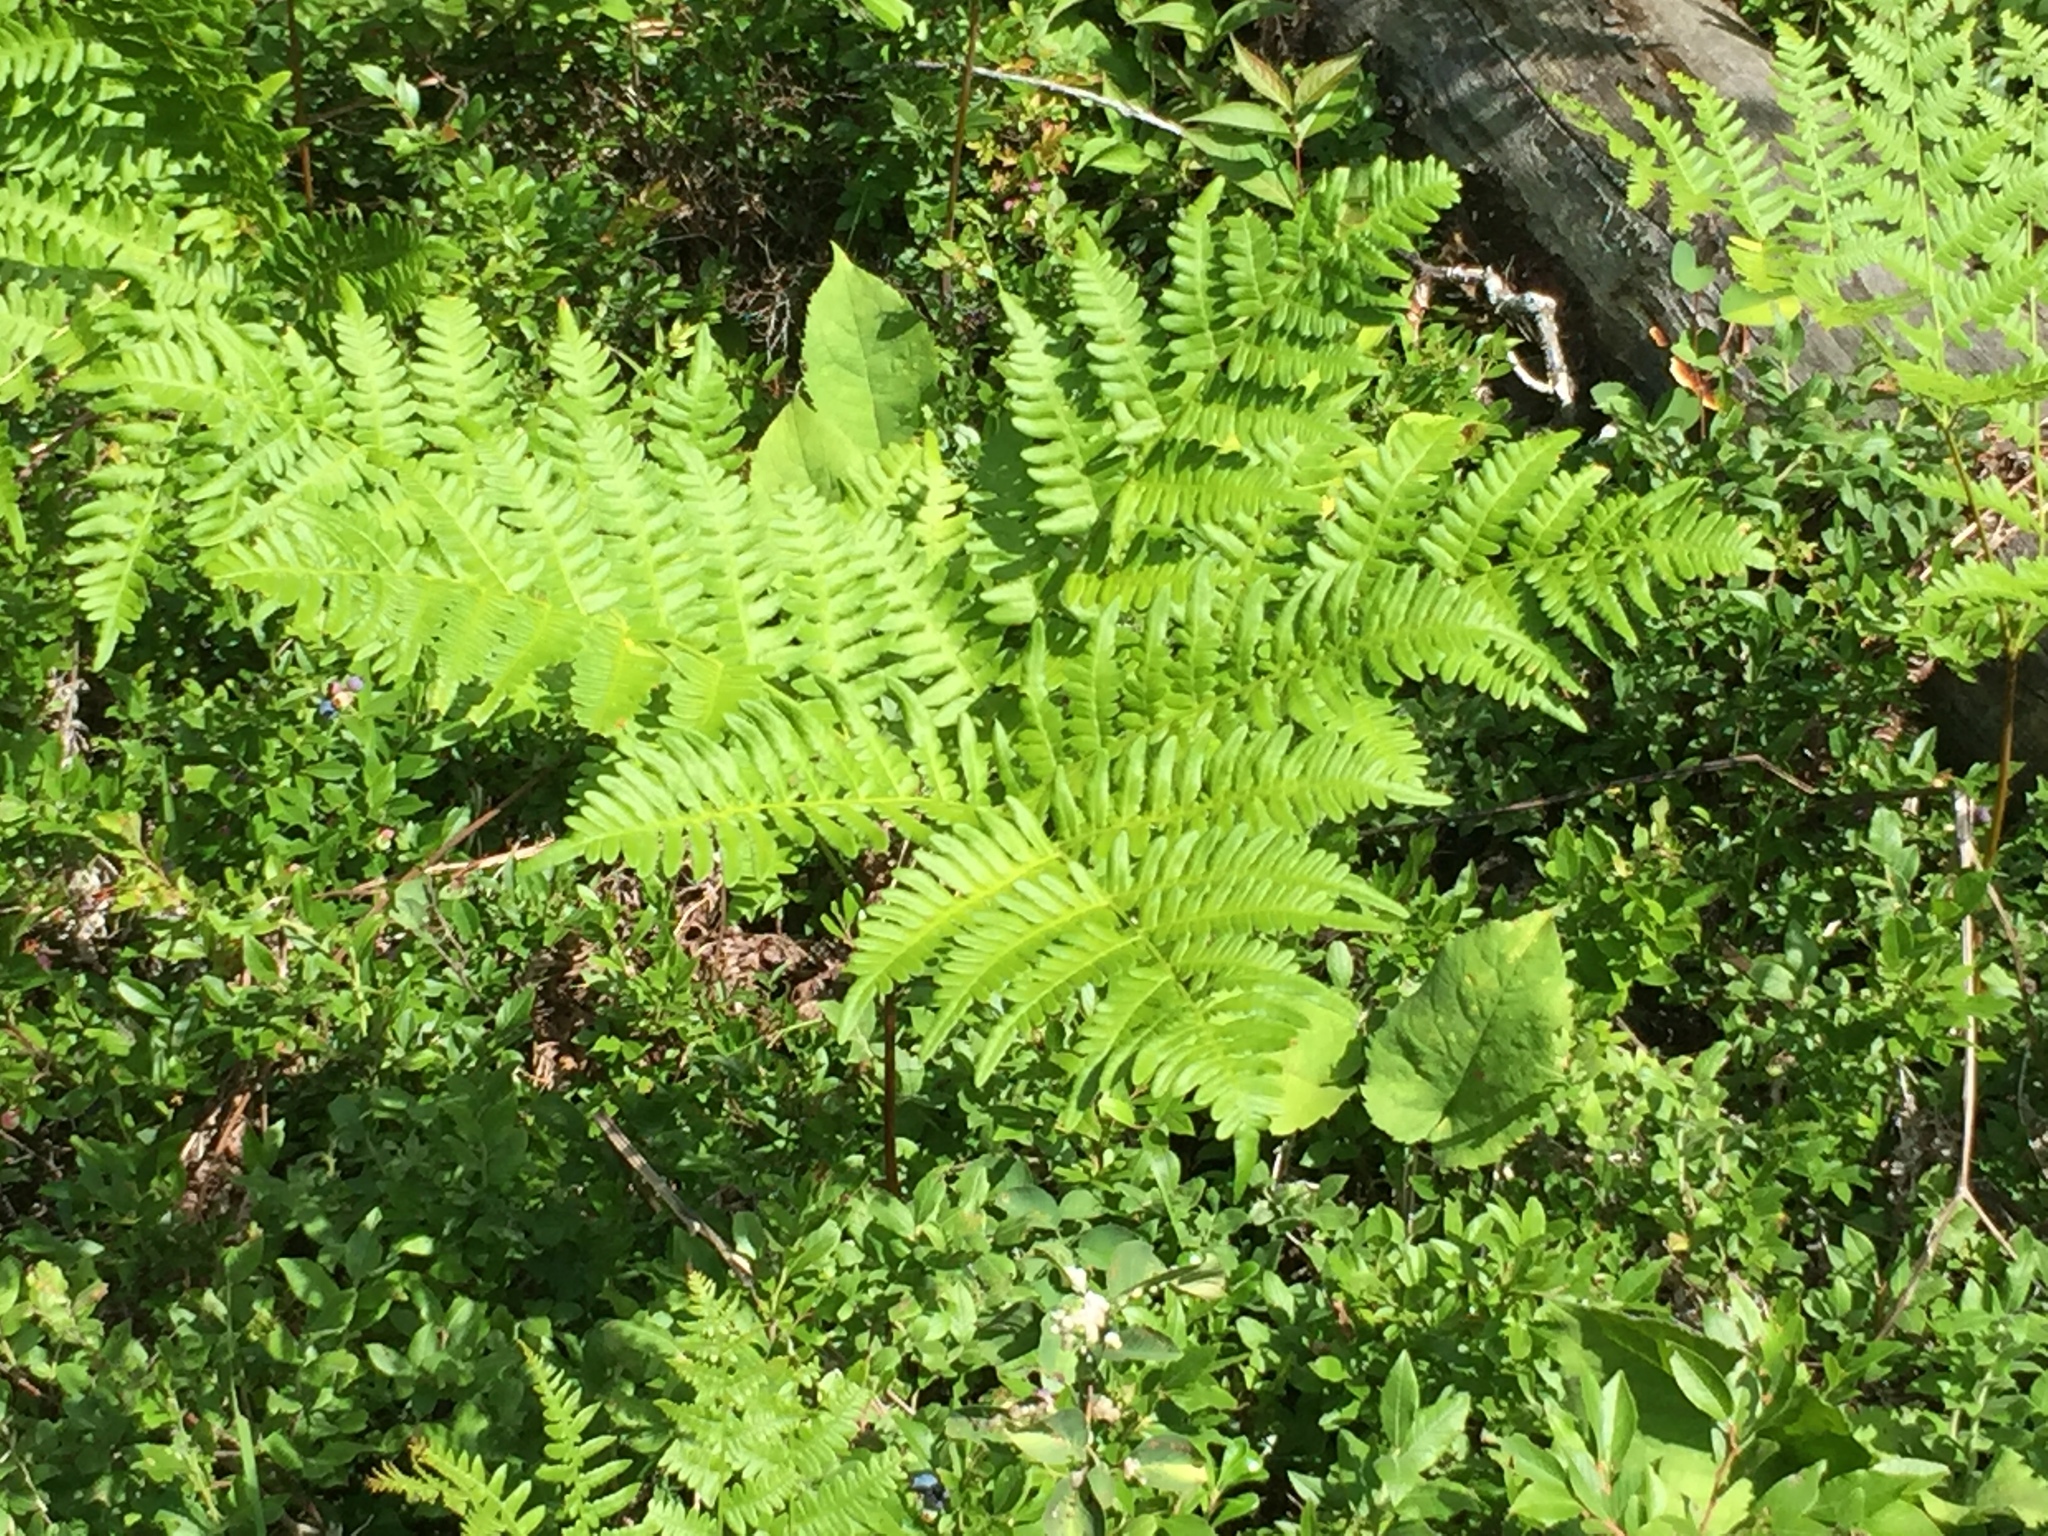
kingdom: Plantae
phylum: Tracheophyta
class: Polypodiopsida
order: Polypodiales
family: Dennstaedtiaceae
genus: Pteridium
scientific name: Pteridium aquilinum
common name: Bracken
